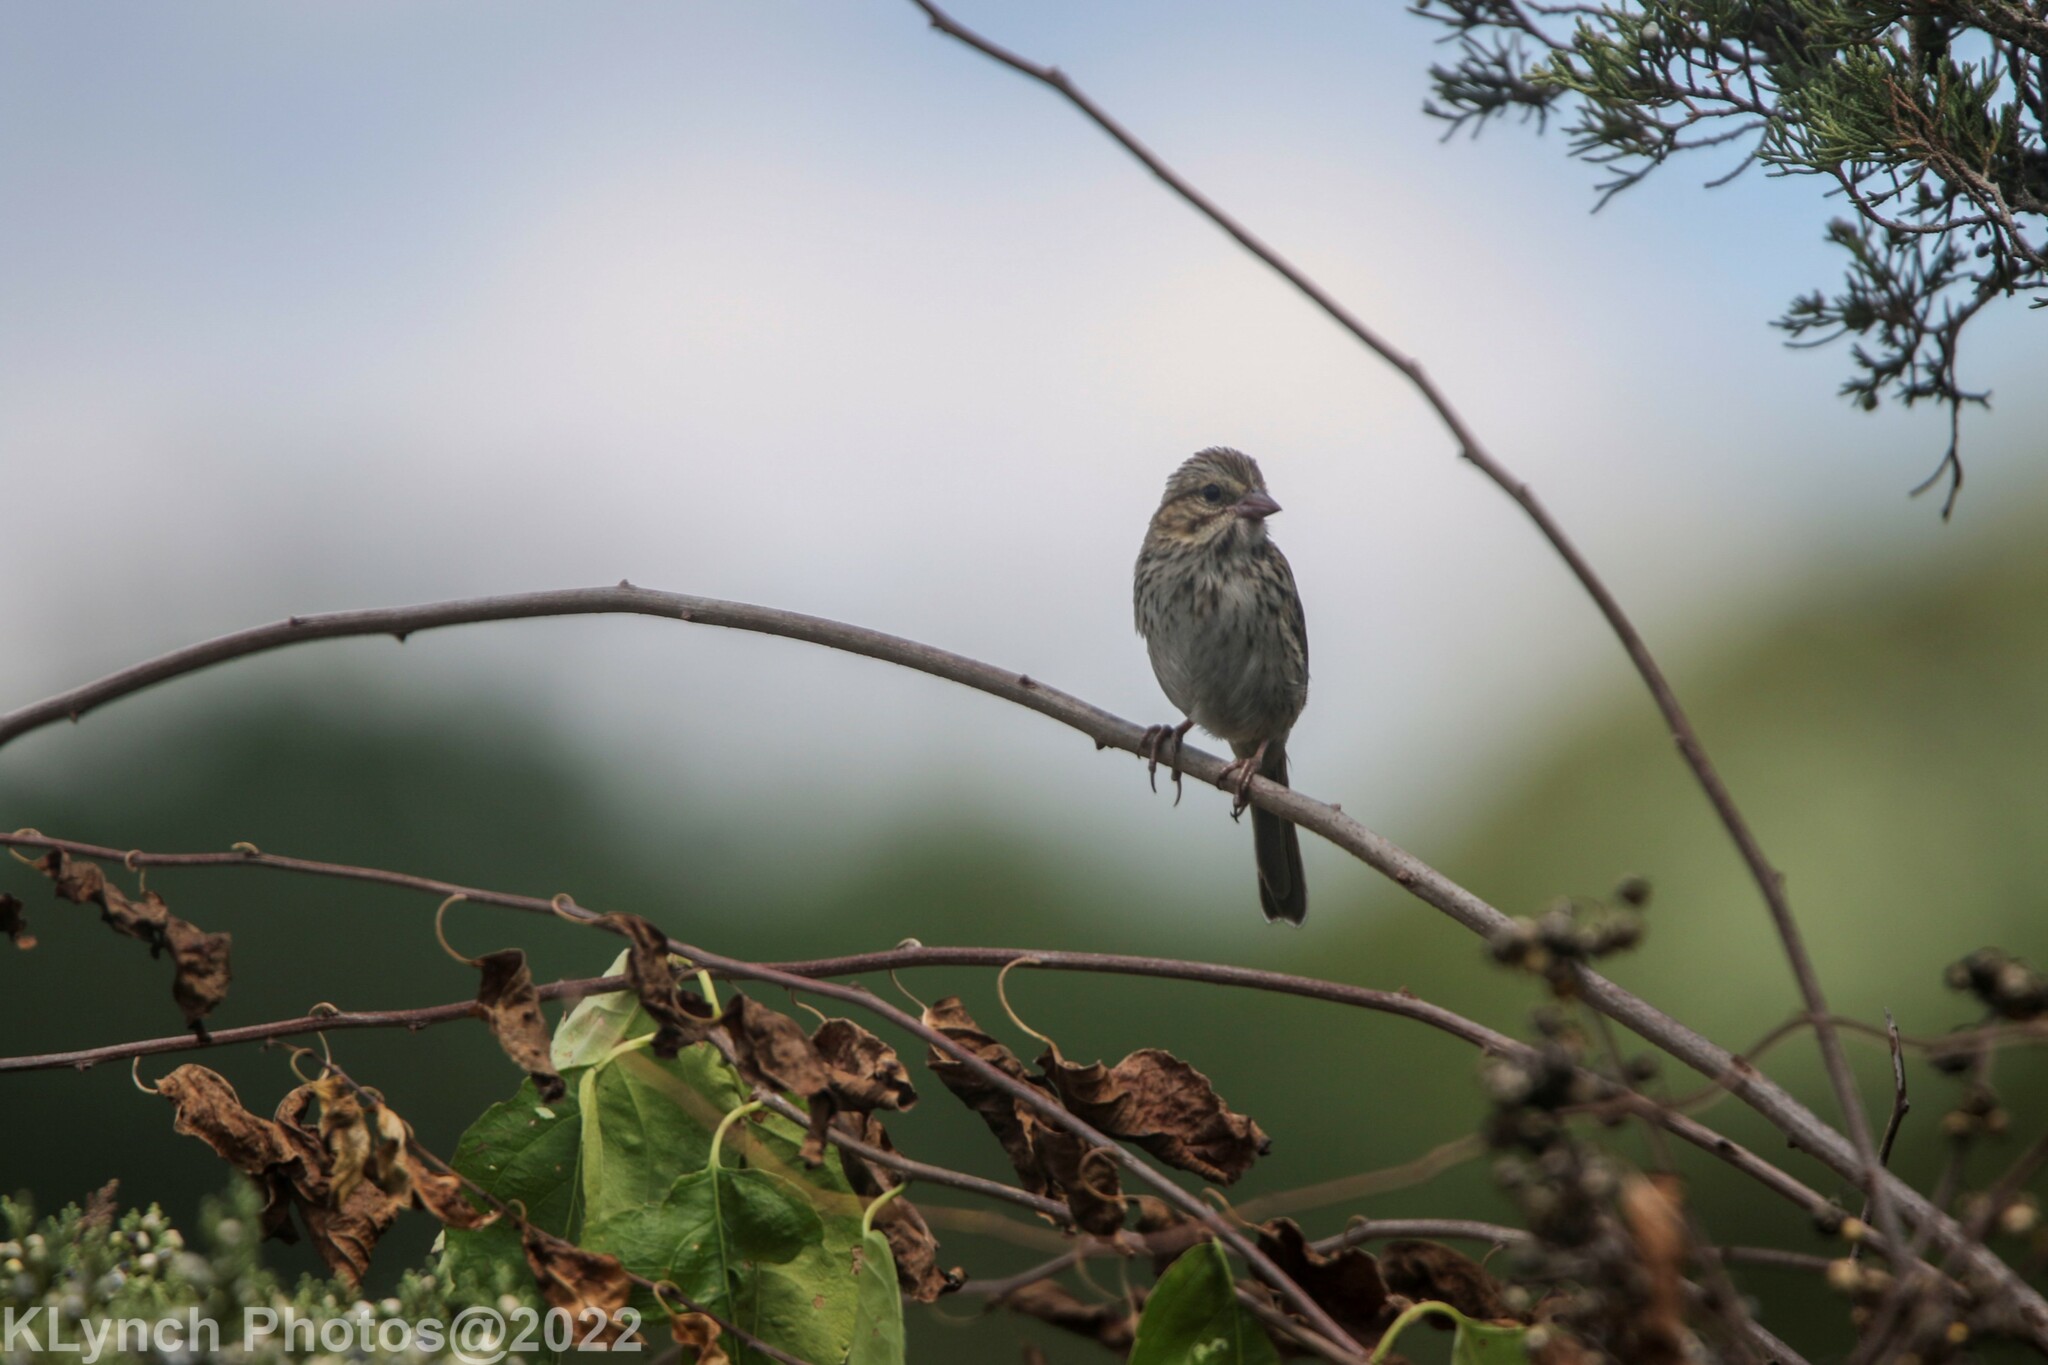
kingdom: Animalia
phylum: Chordata
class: Aves
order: Passeriformes
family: Passerellidae
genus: Passerculus
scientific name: Passerculus sandwichensis
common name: Savannah sparrow
